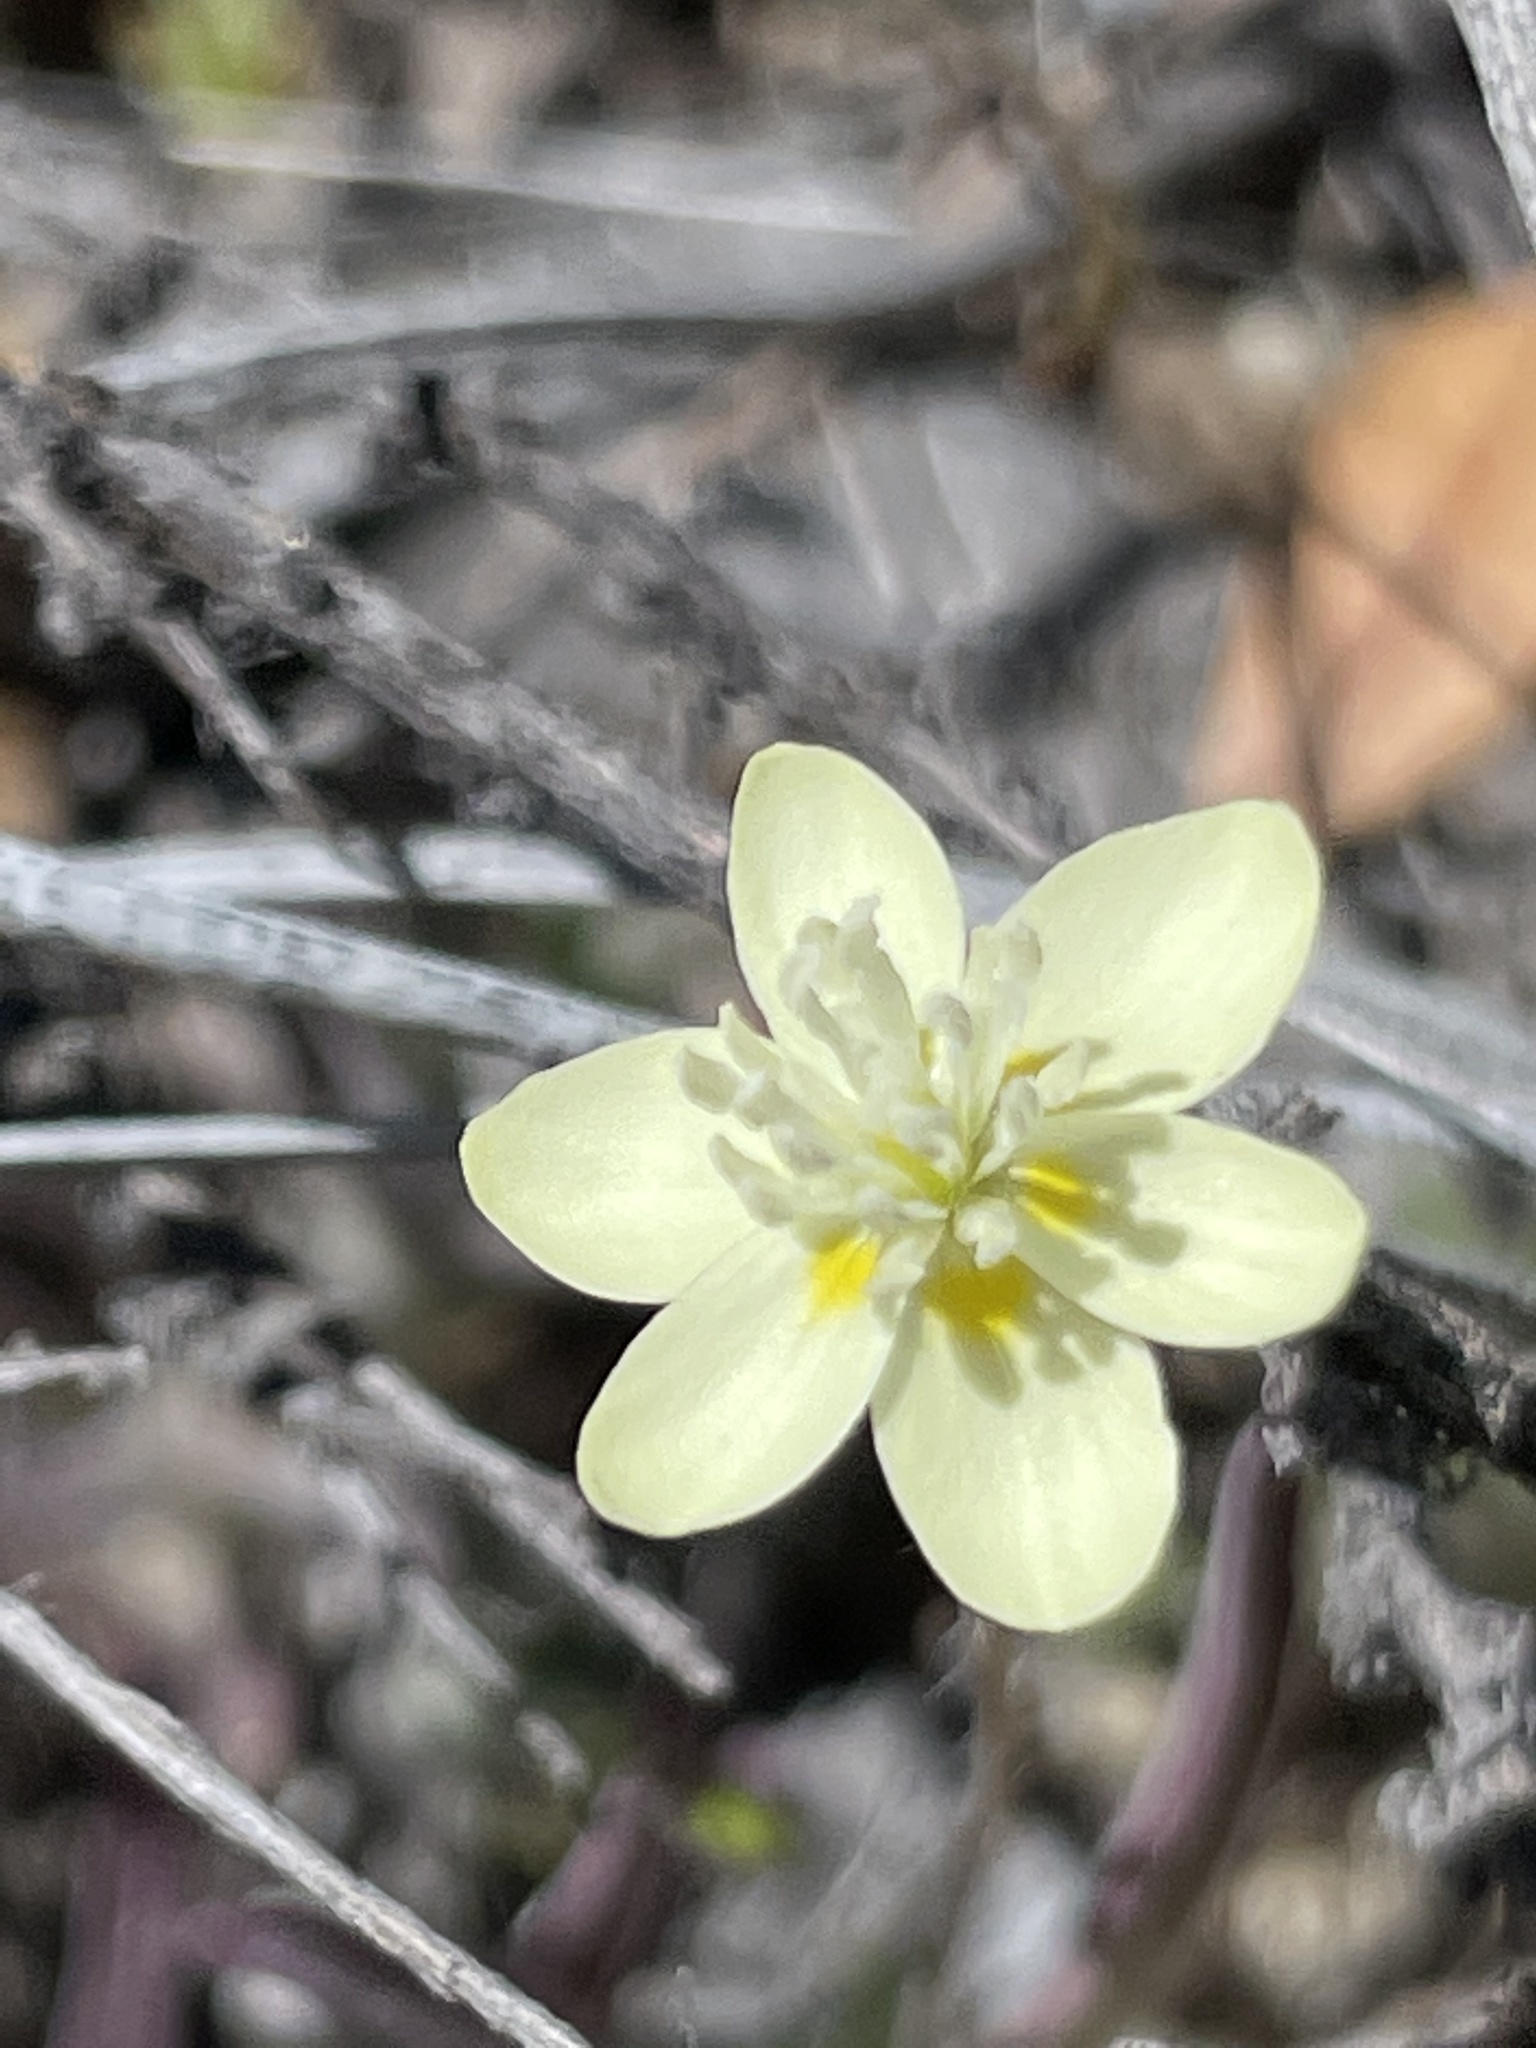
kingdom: Plantae
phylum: Tracheophyta
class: Magnoliopsida
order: Ranunculales
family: Papaveraceae
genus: Platystemon
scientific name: Platystemon californicus
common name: Cream-cups
